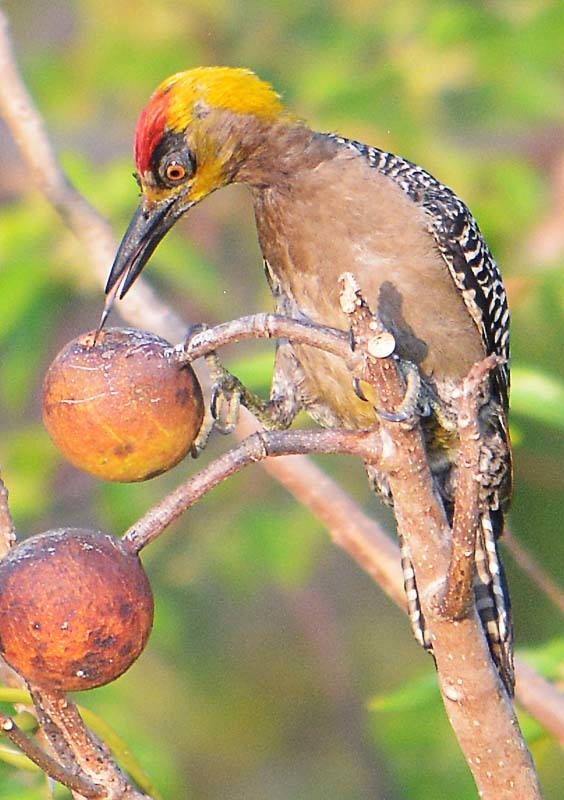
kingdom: Animalia
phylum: Chordata
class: Aves
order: Piciformes
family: Picidae
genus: Melanerpes
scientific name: Melanerpes chrysogenys
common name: Golden-cheeked woodpecker
